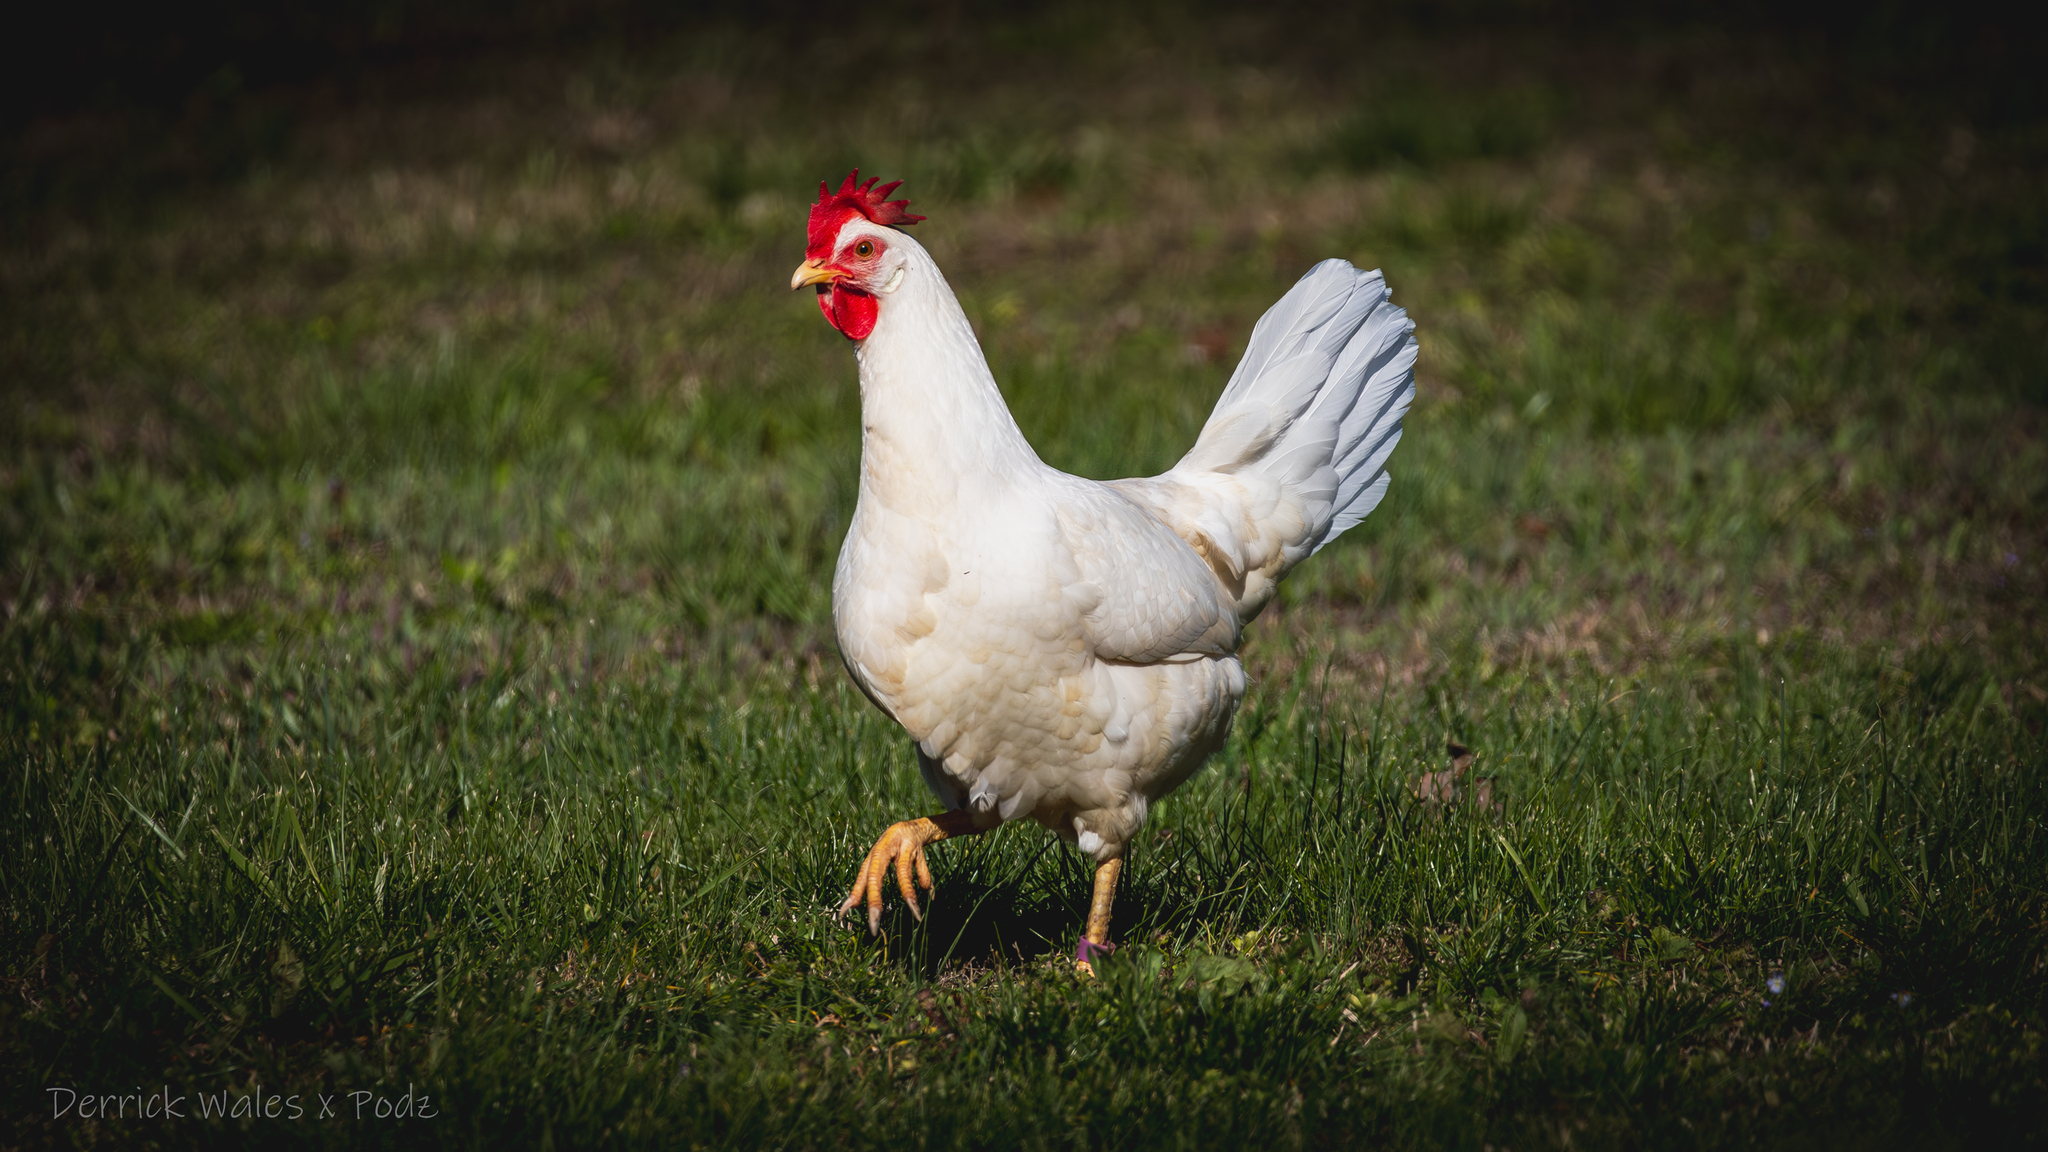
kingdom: Animalia
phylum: Chordata
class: Aves
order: Galliformes
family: Phasianidae
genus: Gallus
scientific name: Gallus gallus
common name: Red junglefowl
